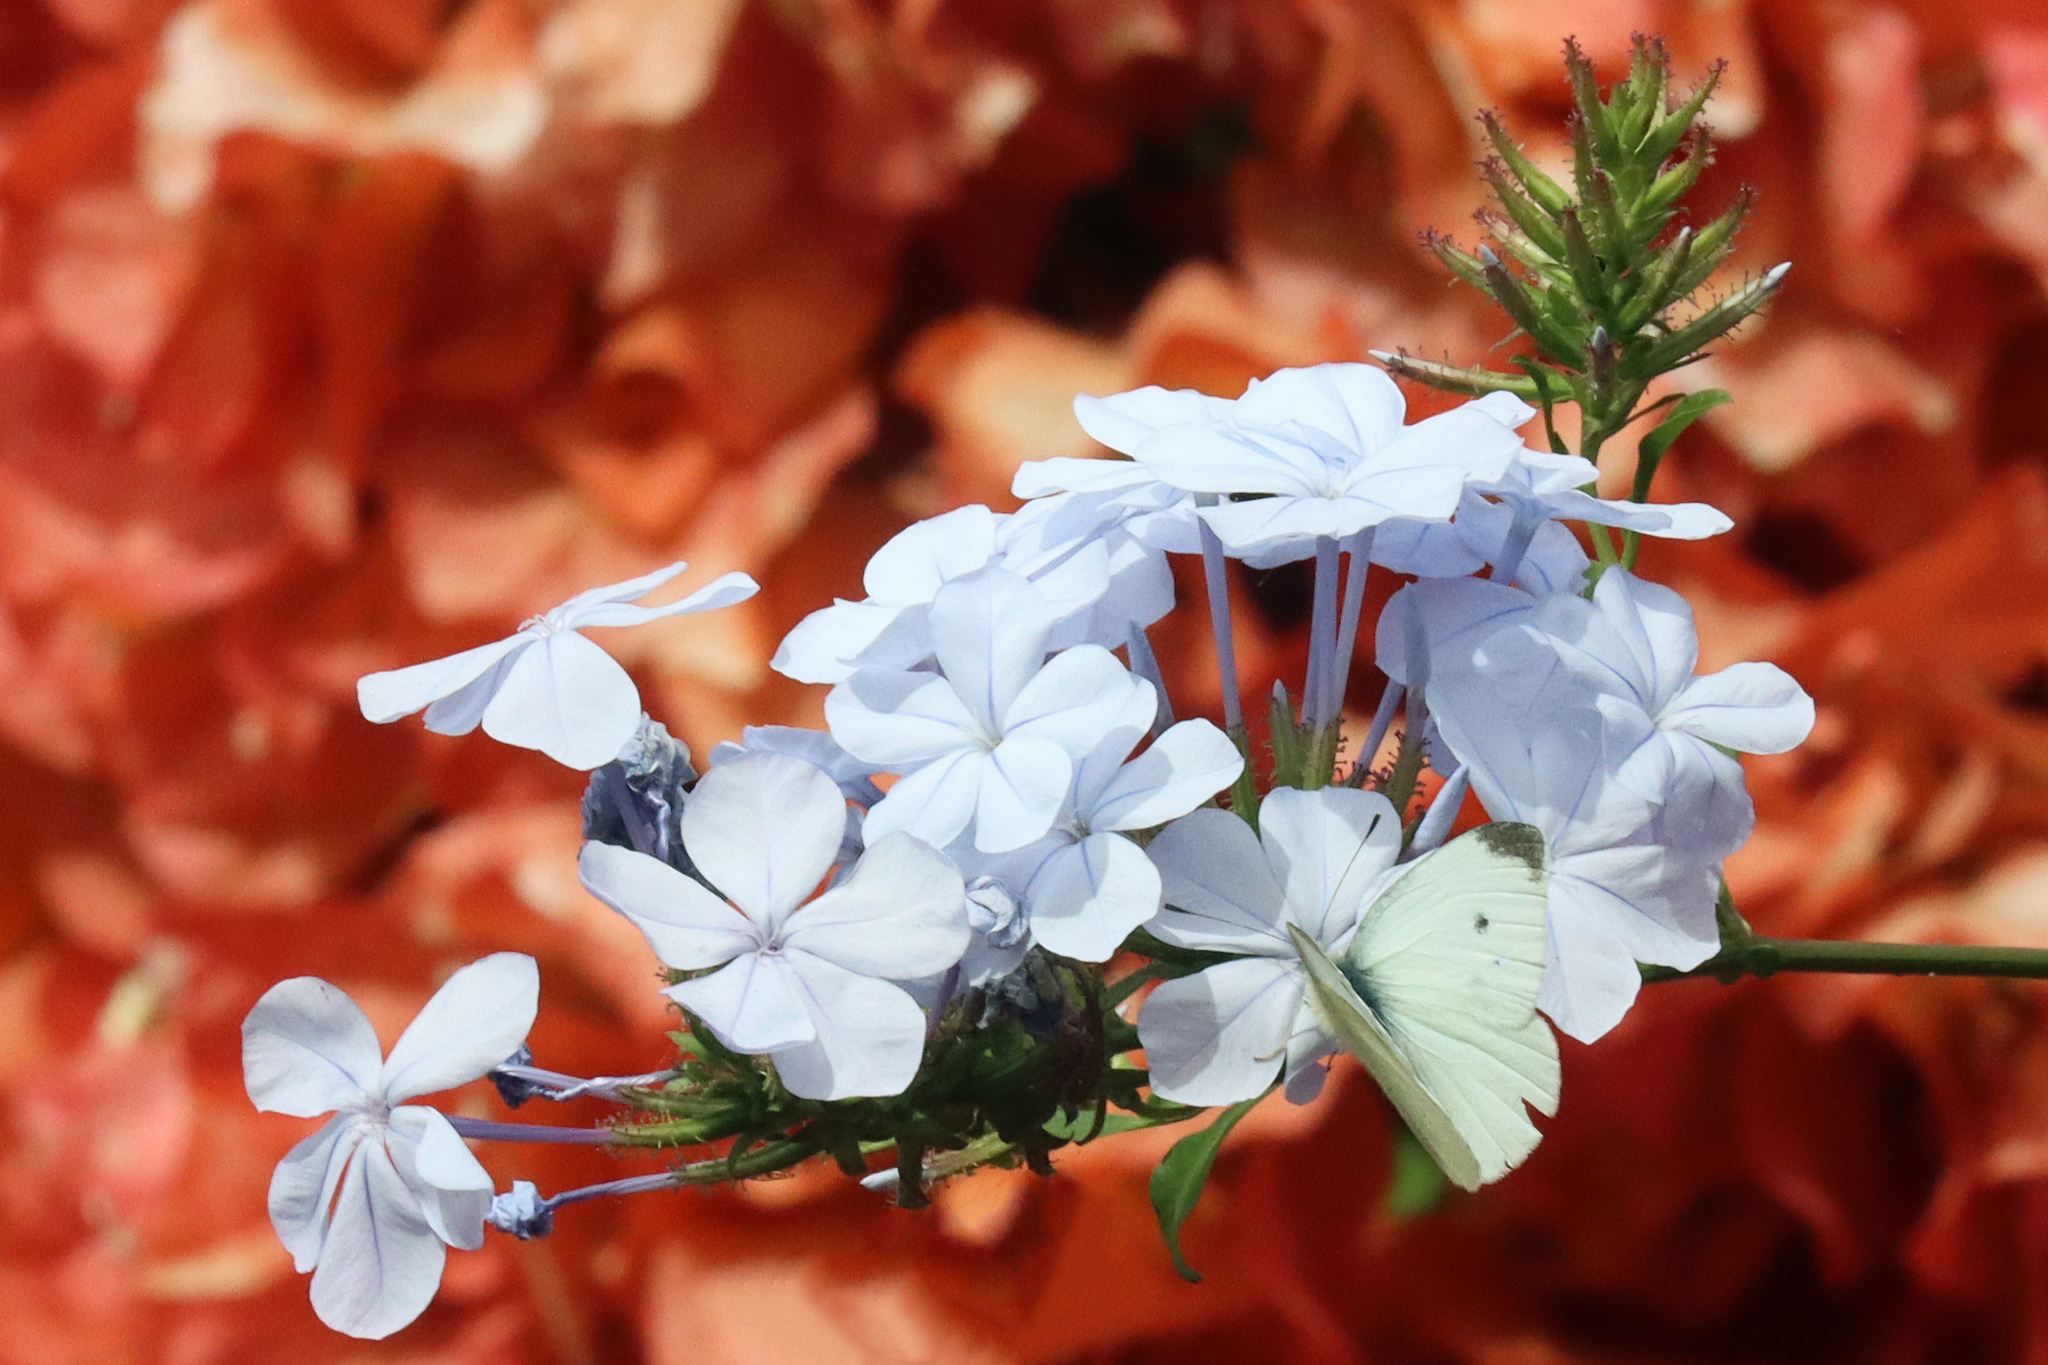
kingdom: Animalia
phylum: Arthropoda
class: Insecta
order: Lepidoptera
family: Pieridae
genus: Pieris
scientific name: Pieris rapae
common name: Small white
